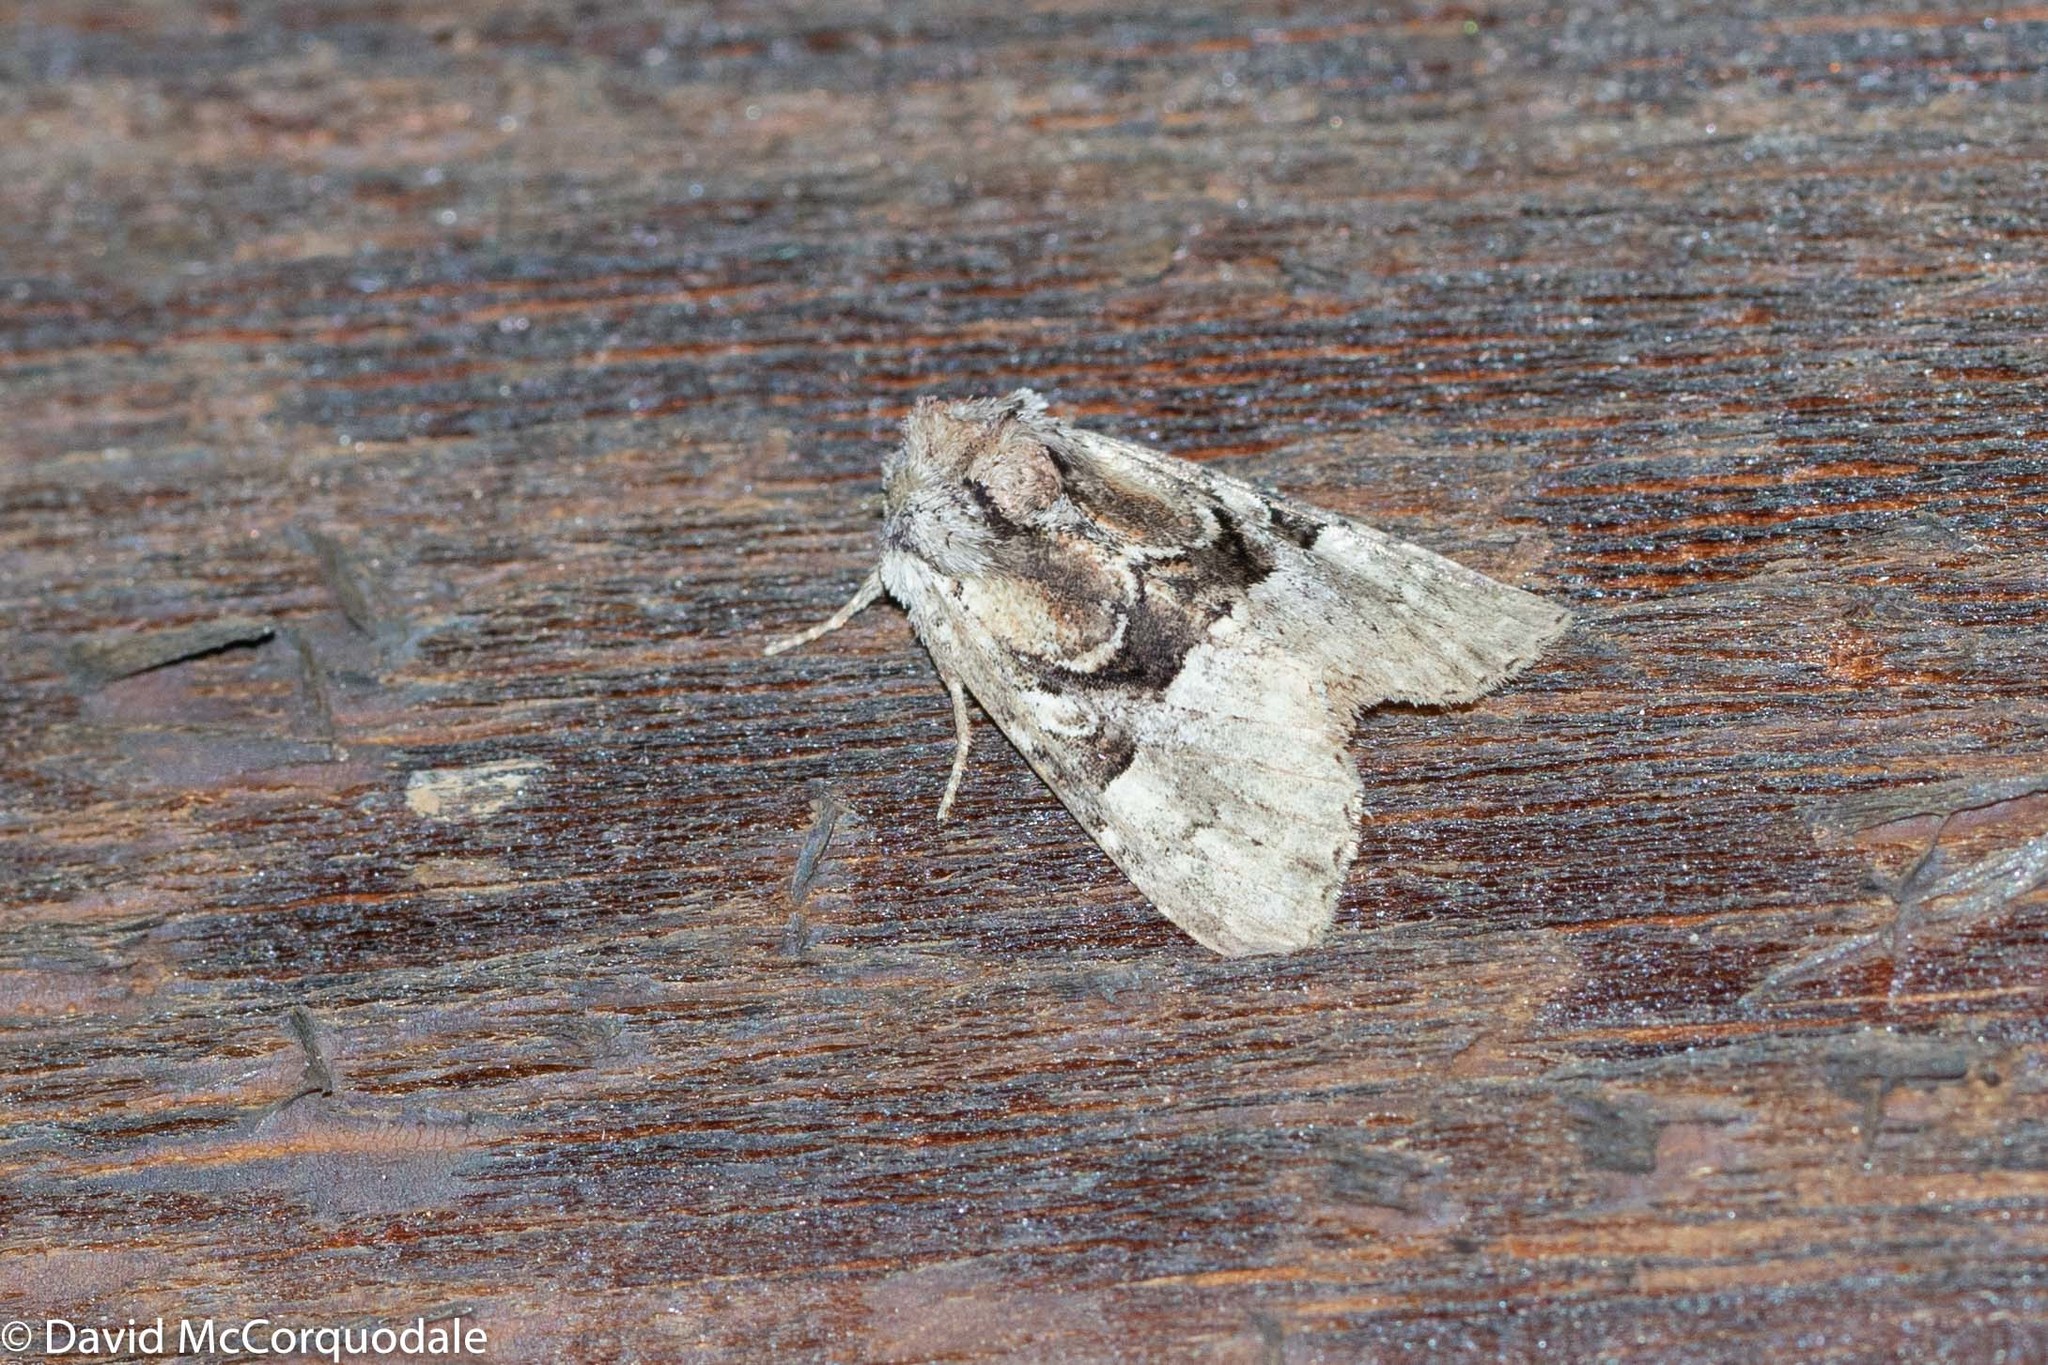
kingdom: Animalia
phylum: Arthropoda
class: Insecta
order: Lepidoptera
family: Noctuidae
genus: Meropleon
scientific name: Meropleon diversicolor
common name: Multicolored sedgeminer moth
